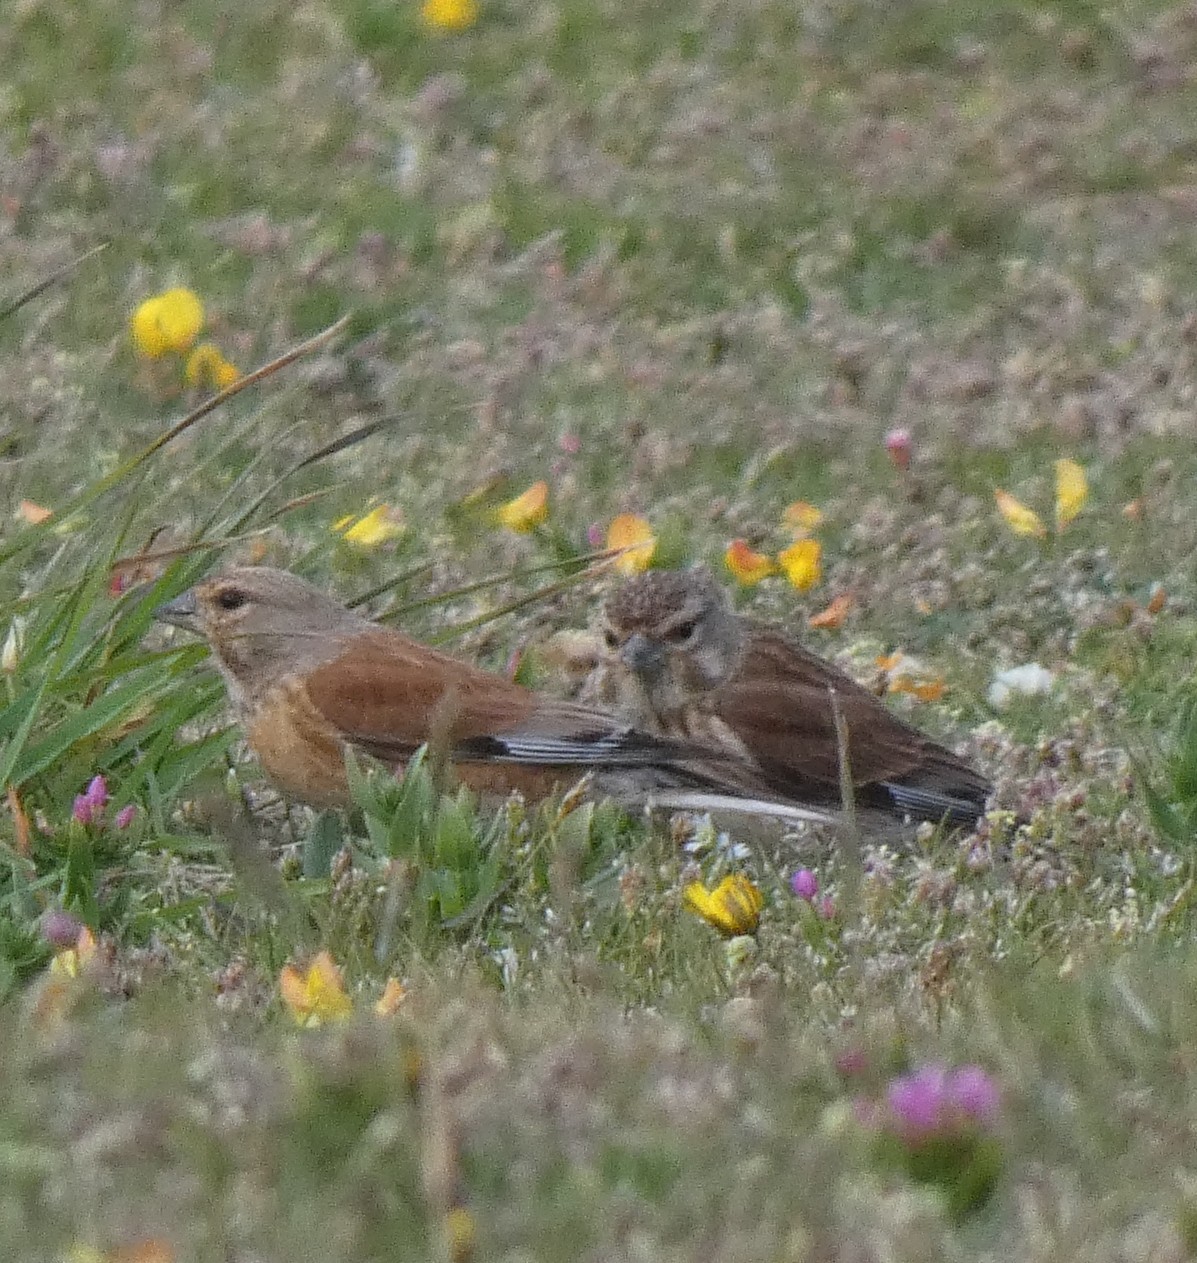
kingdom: Animalia
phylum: Chordata
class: Aves
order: Passeriformes
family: Fringillidae
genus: Linaria
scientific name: Linaria cannabina
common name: Common linnet
